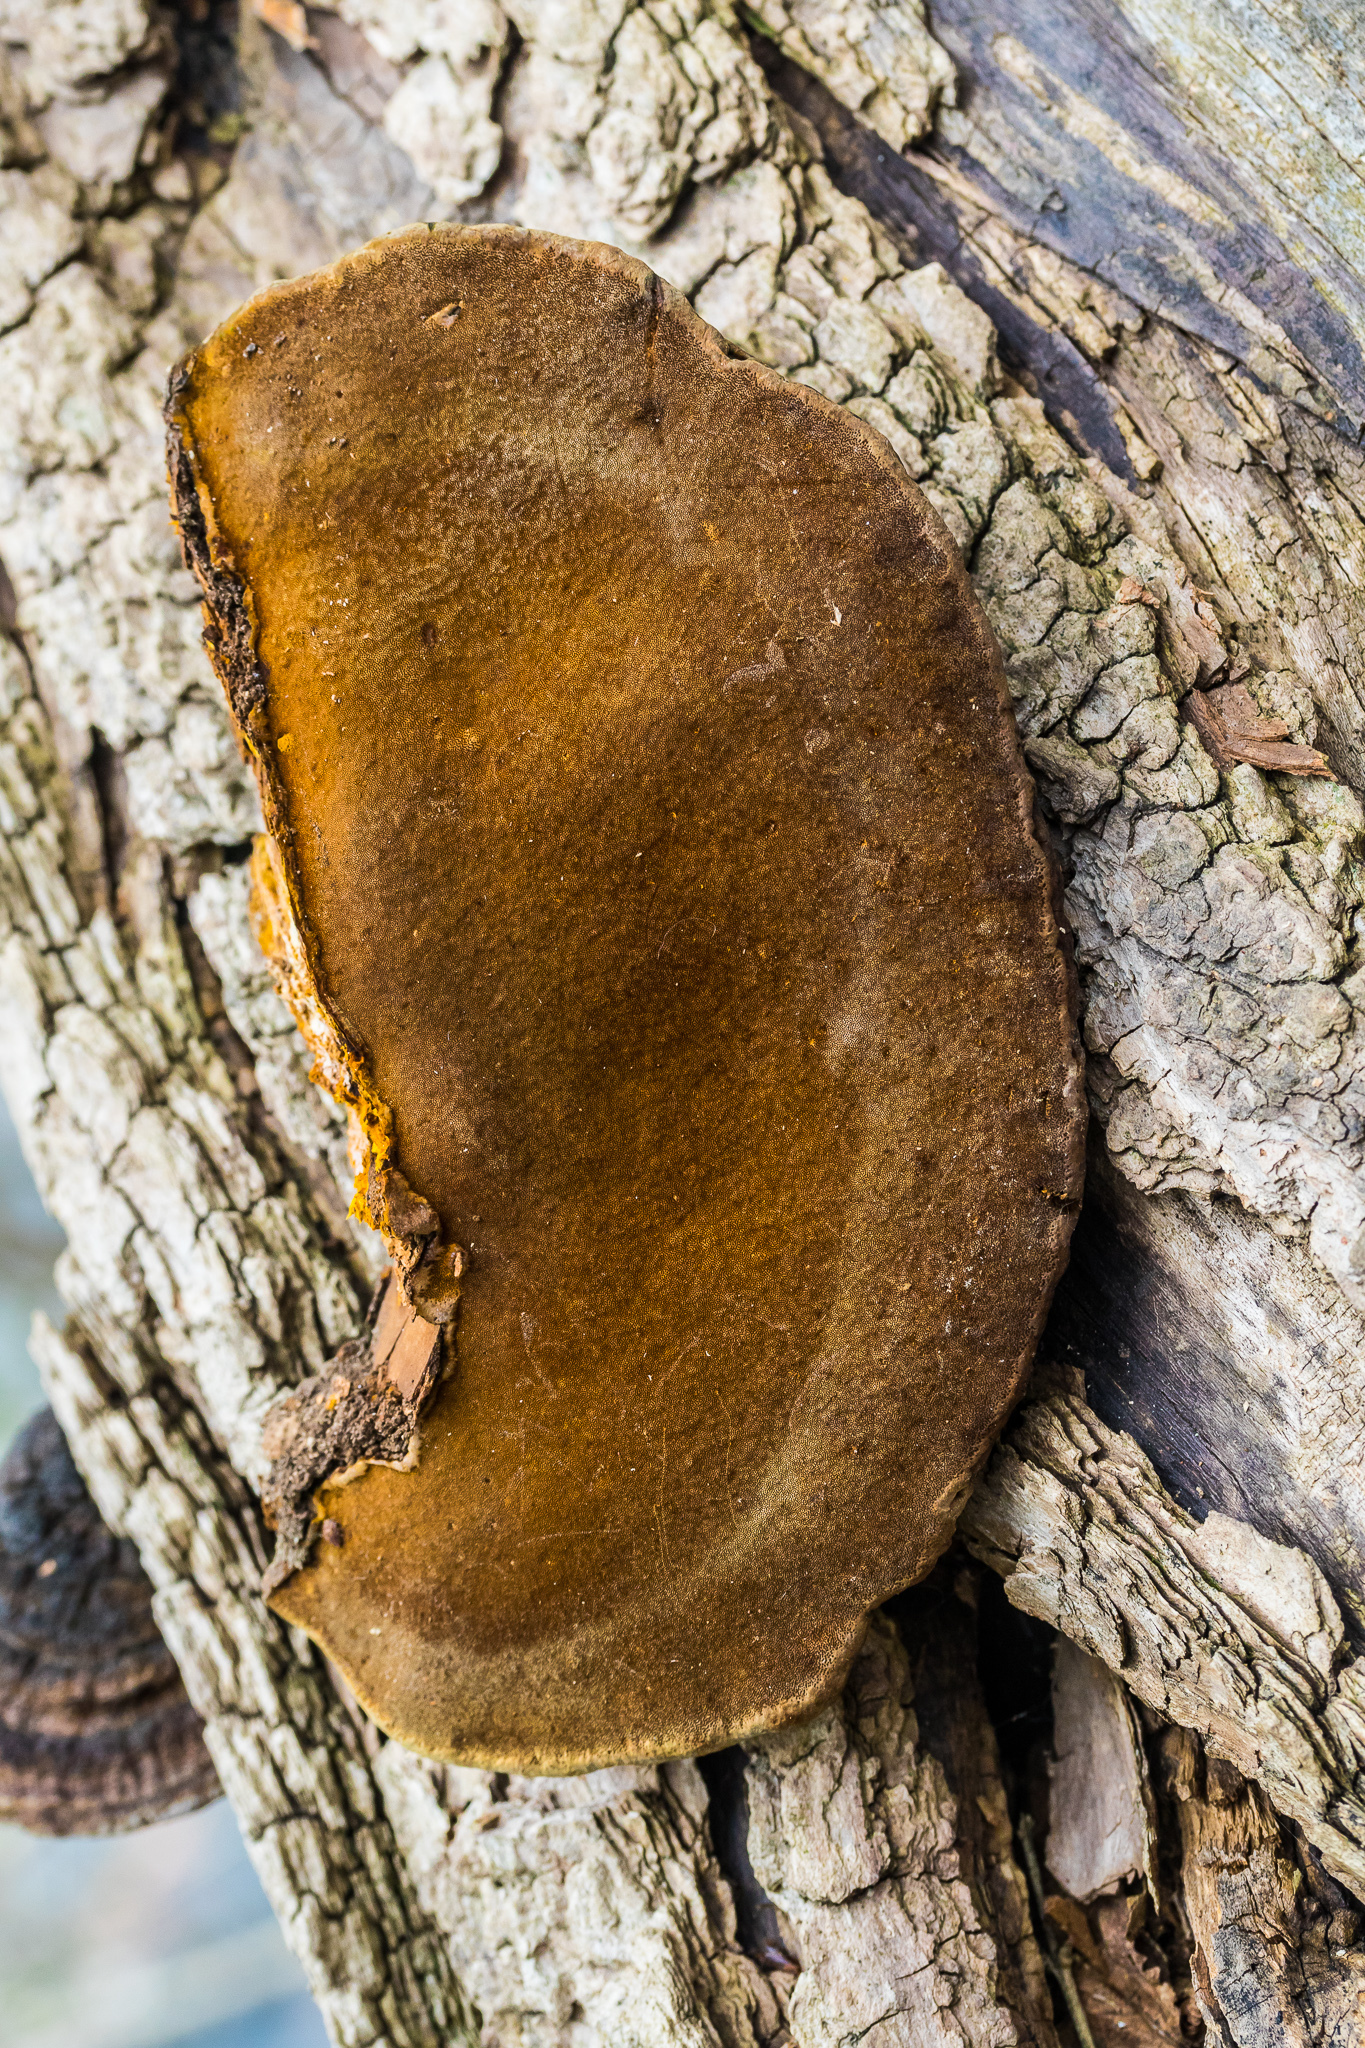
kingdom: Fungi
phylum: Basidiomycota
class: Agaricomycetes
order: Hymenochaetales
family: Hymenochaetaceae
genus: Phellinus
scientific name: Phellinus robiniae
